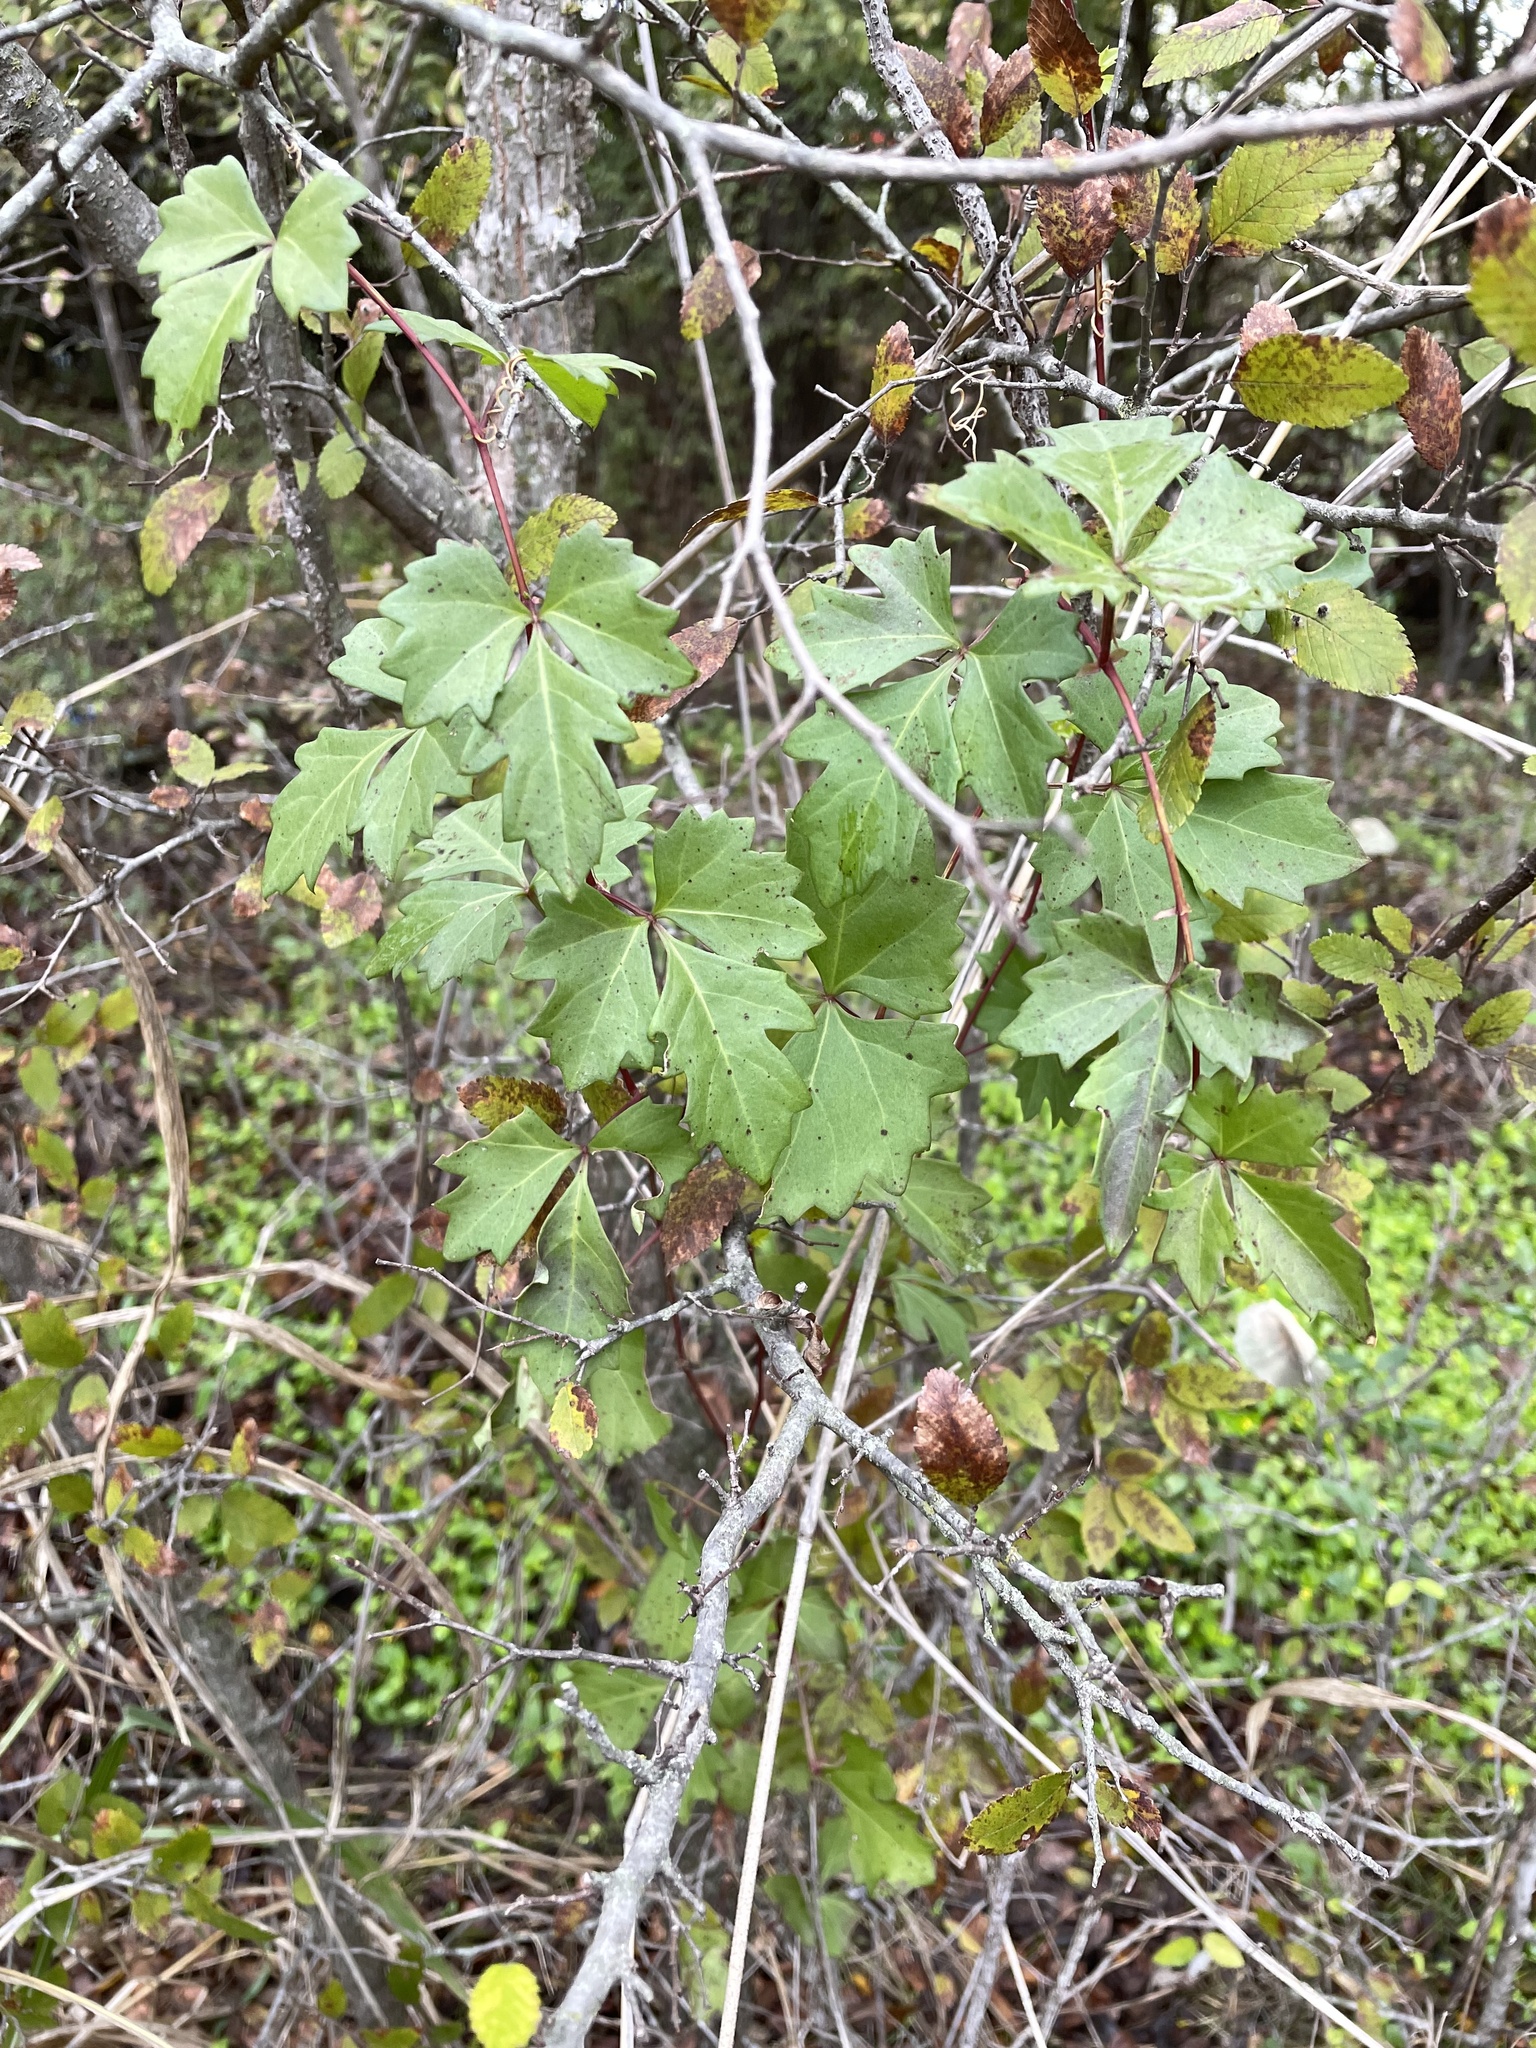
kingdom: Plantae
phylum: Tracheophyta
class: Magnoliopsida
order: Vitales
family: Vitaceae
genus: Cissus
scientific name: Cissus trifoliata
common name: Vine-sorrel
